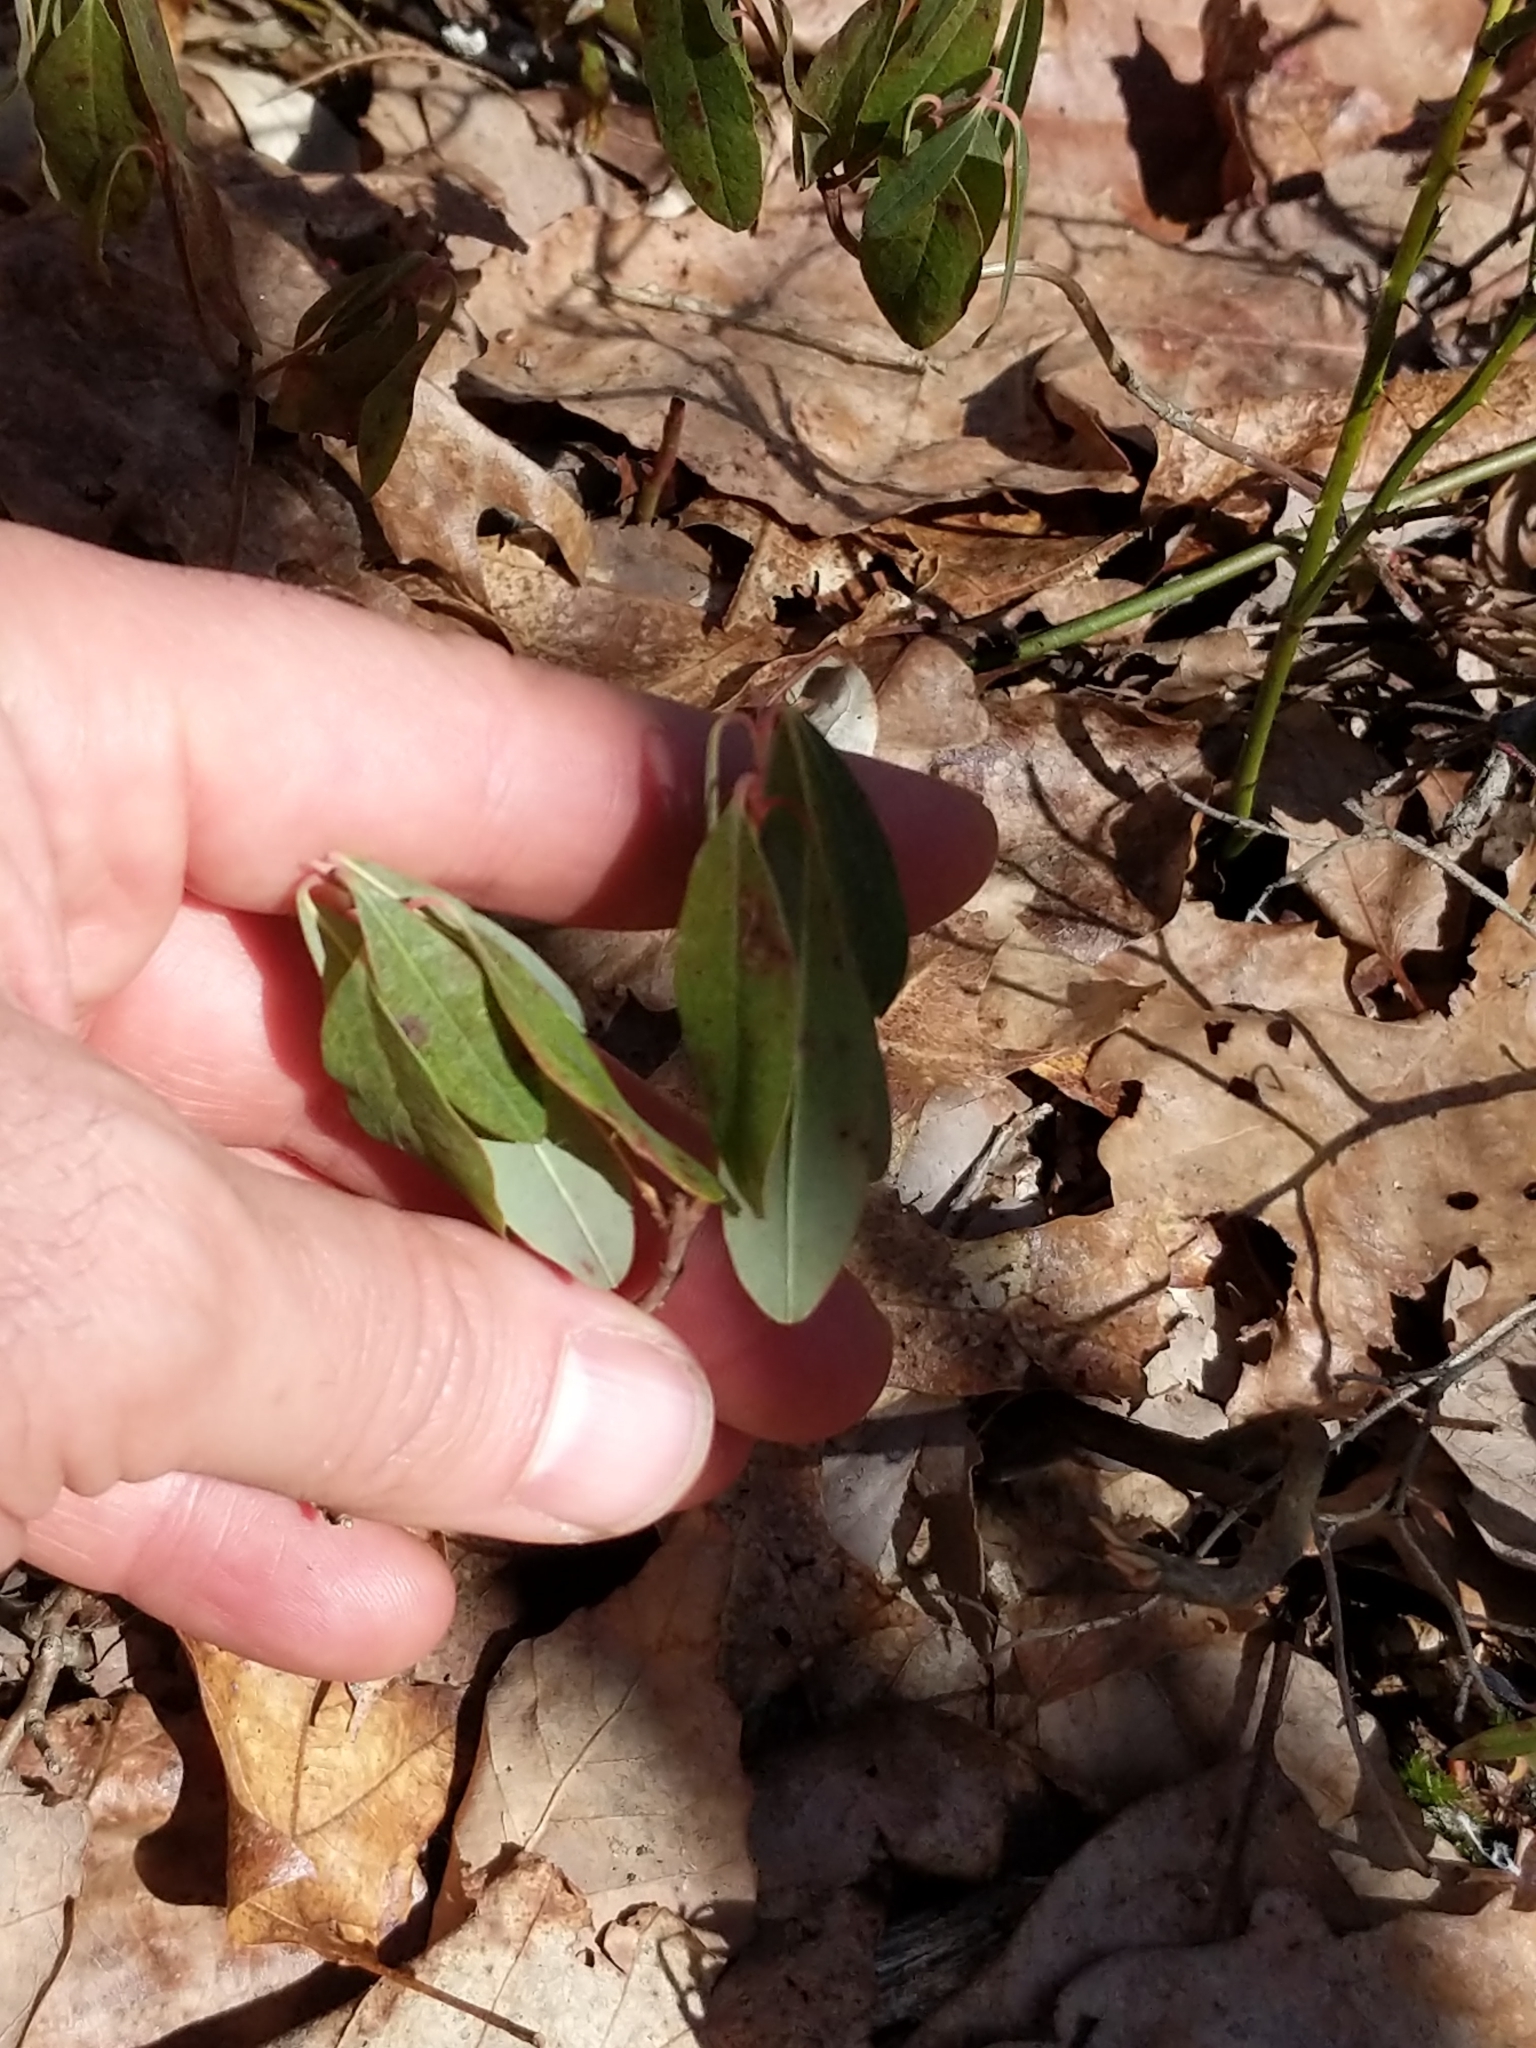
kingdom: Plantae
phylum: Tracheophyta
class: Magnoliopsida
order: Ericales
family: Ericaceae
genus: Kalmia
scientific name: Kalmia angustifolia
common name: Sheep-laurel
